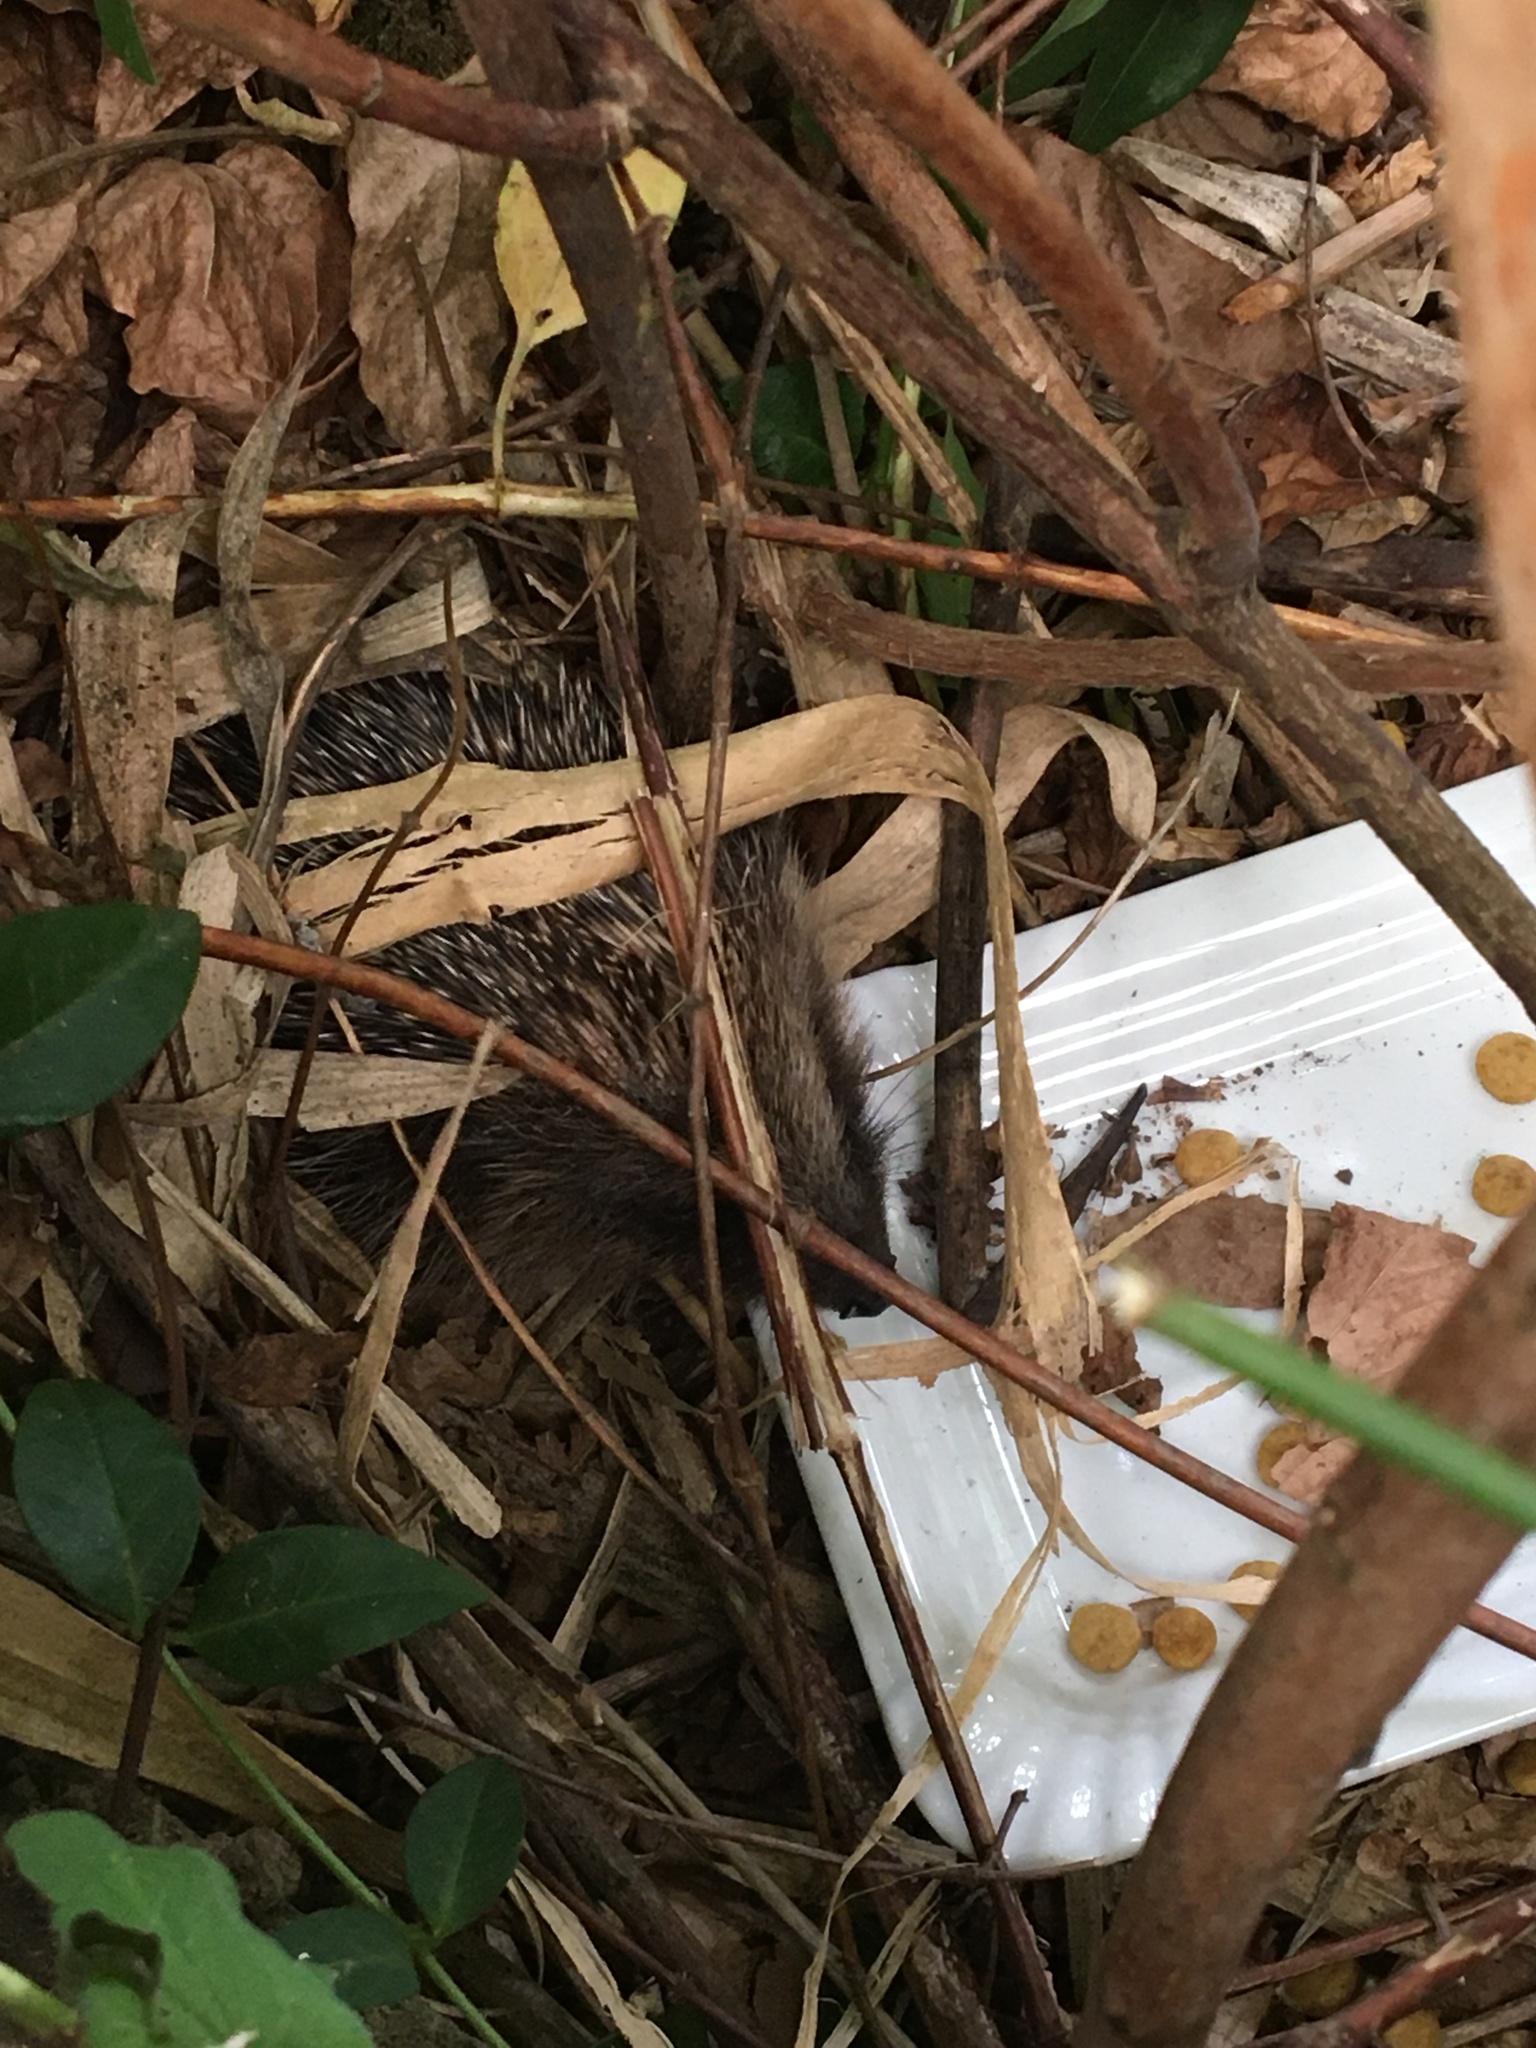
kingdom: Animalia
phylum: Chordata
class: Mammalia
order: Erinaceomorpha
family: Erinaceidae
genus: Erinaceus
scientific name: Erinaceus europaeus
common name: West european hedgehog
